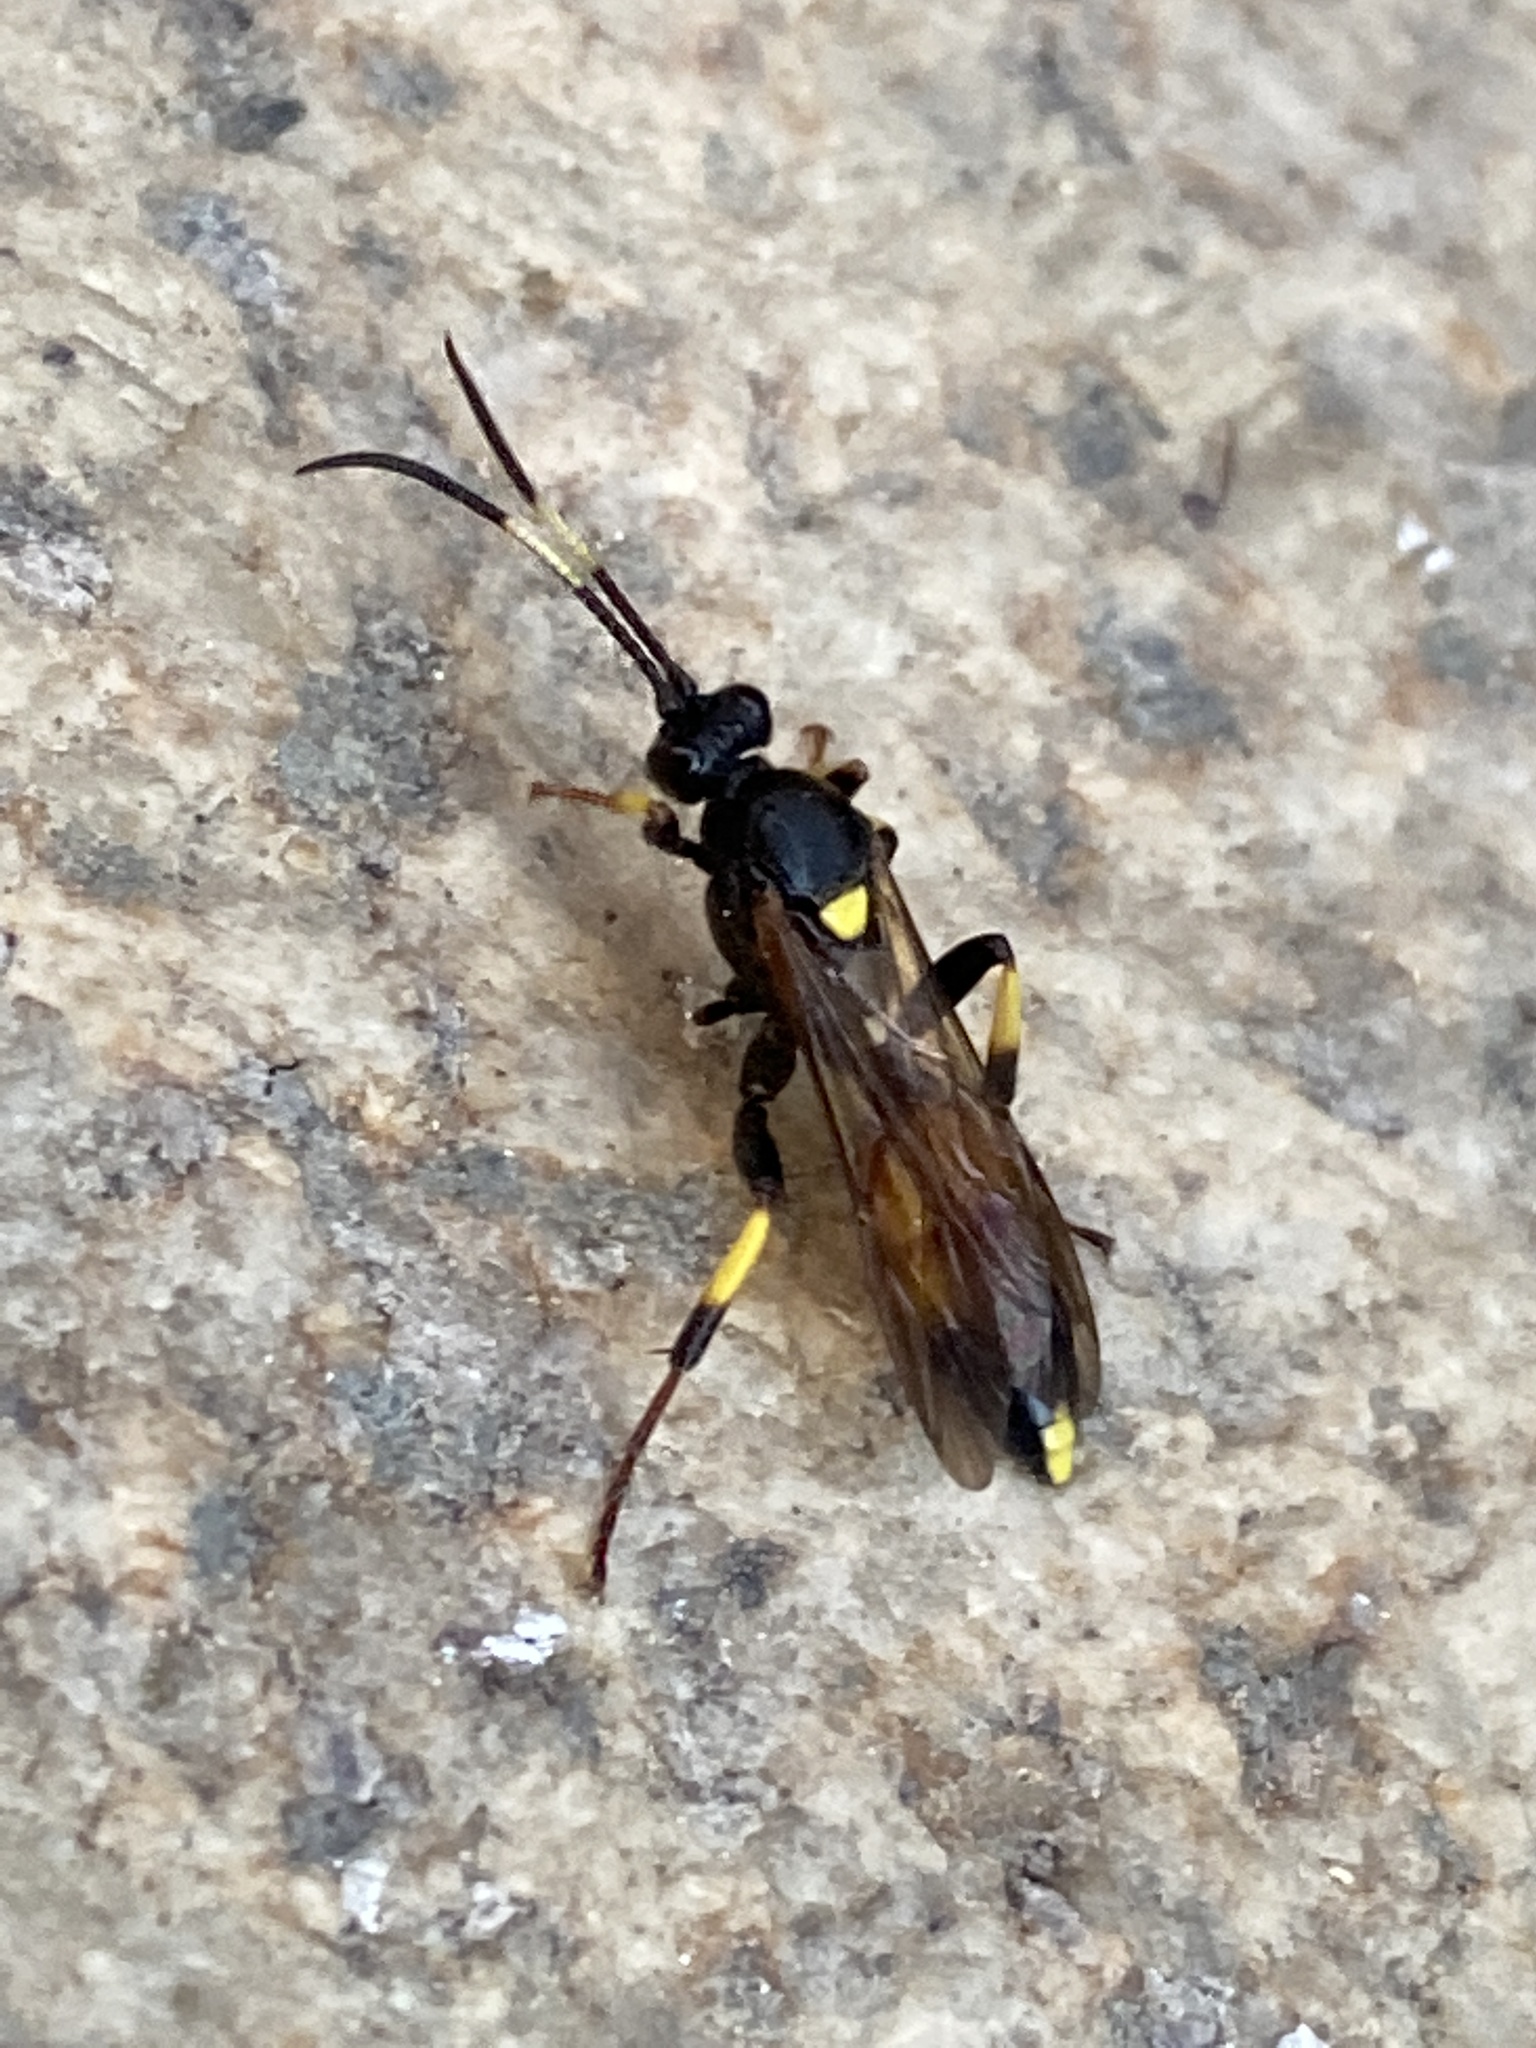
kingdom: Animalia
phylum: Arthropoda
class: Insecta
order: Hymenoptera
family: Ichneumonidae
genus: Ichneumon
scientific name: Ichneumon stramentor
